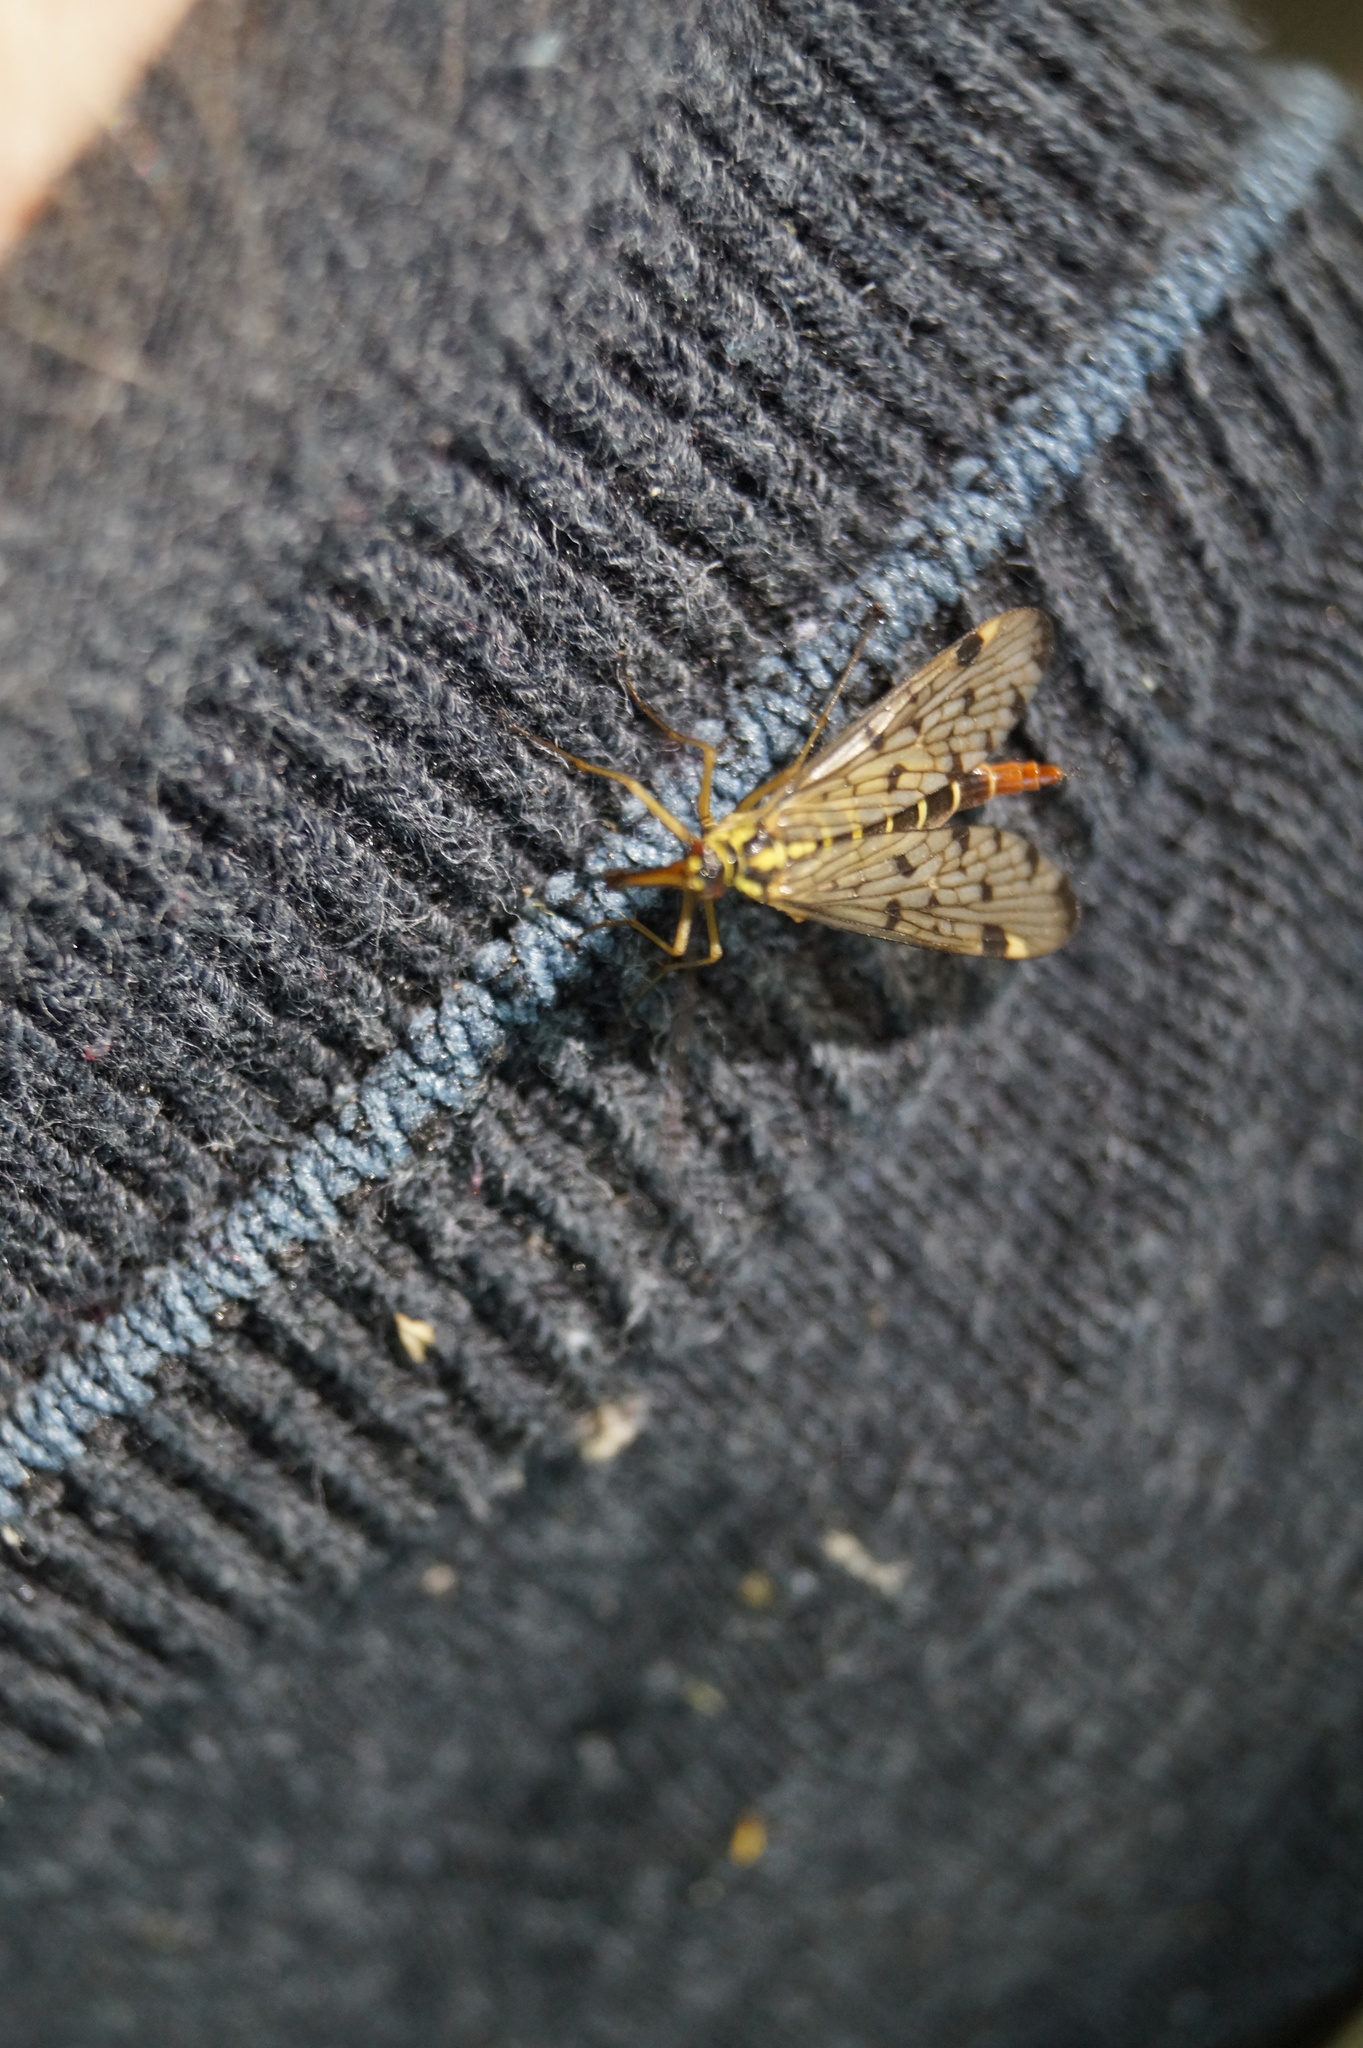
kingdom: Animalia
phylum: Arthropoda
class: Insecta
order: Mecoptera
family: Panorpidae
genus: Panorpa
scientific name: Panorpa germanica
